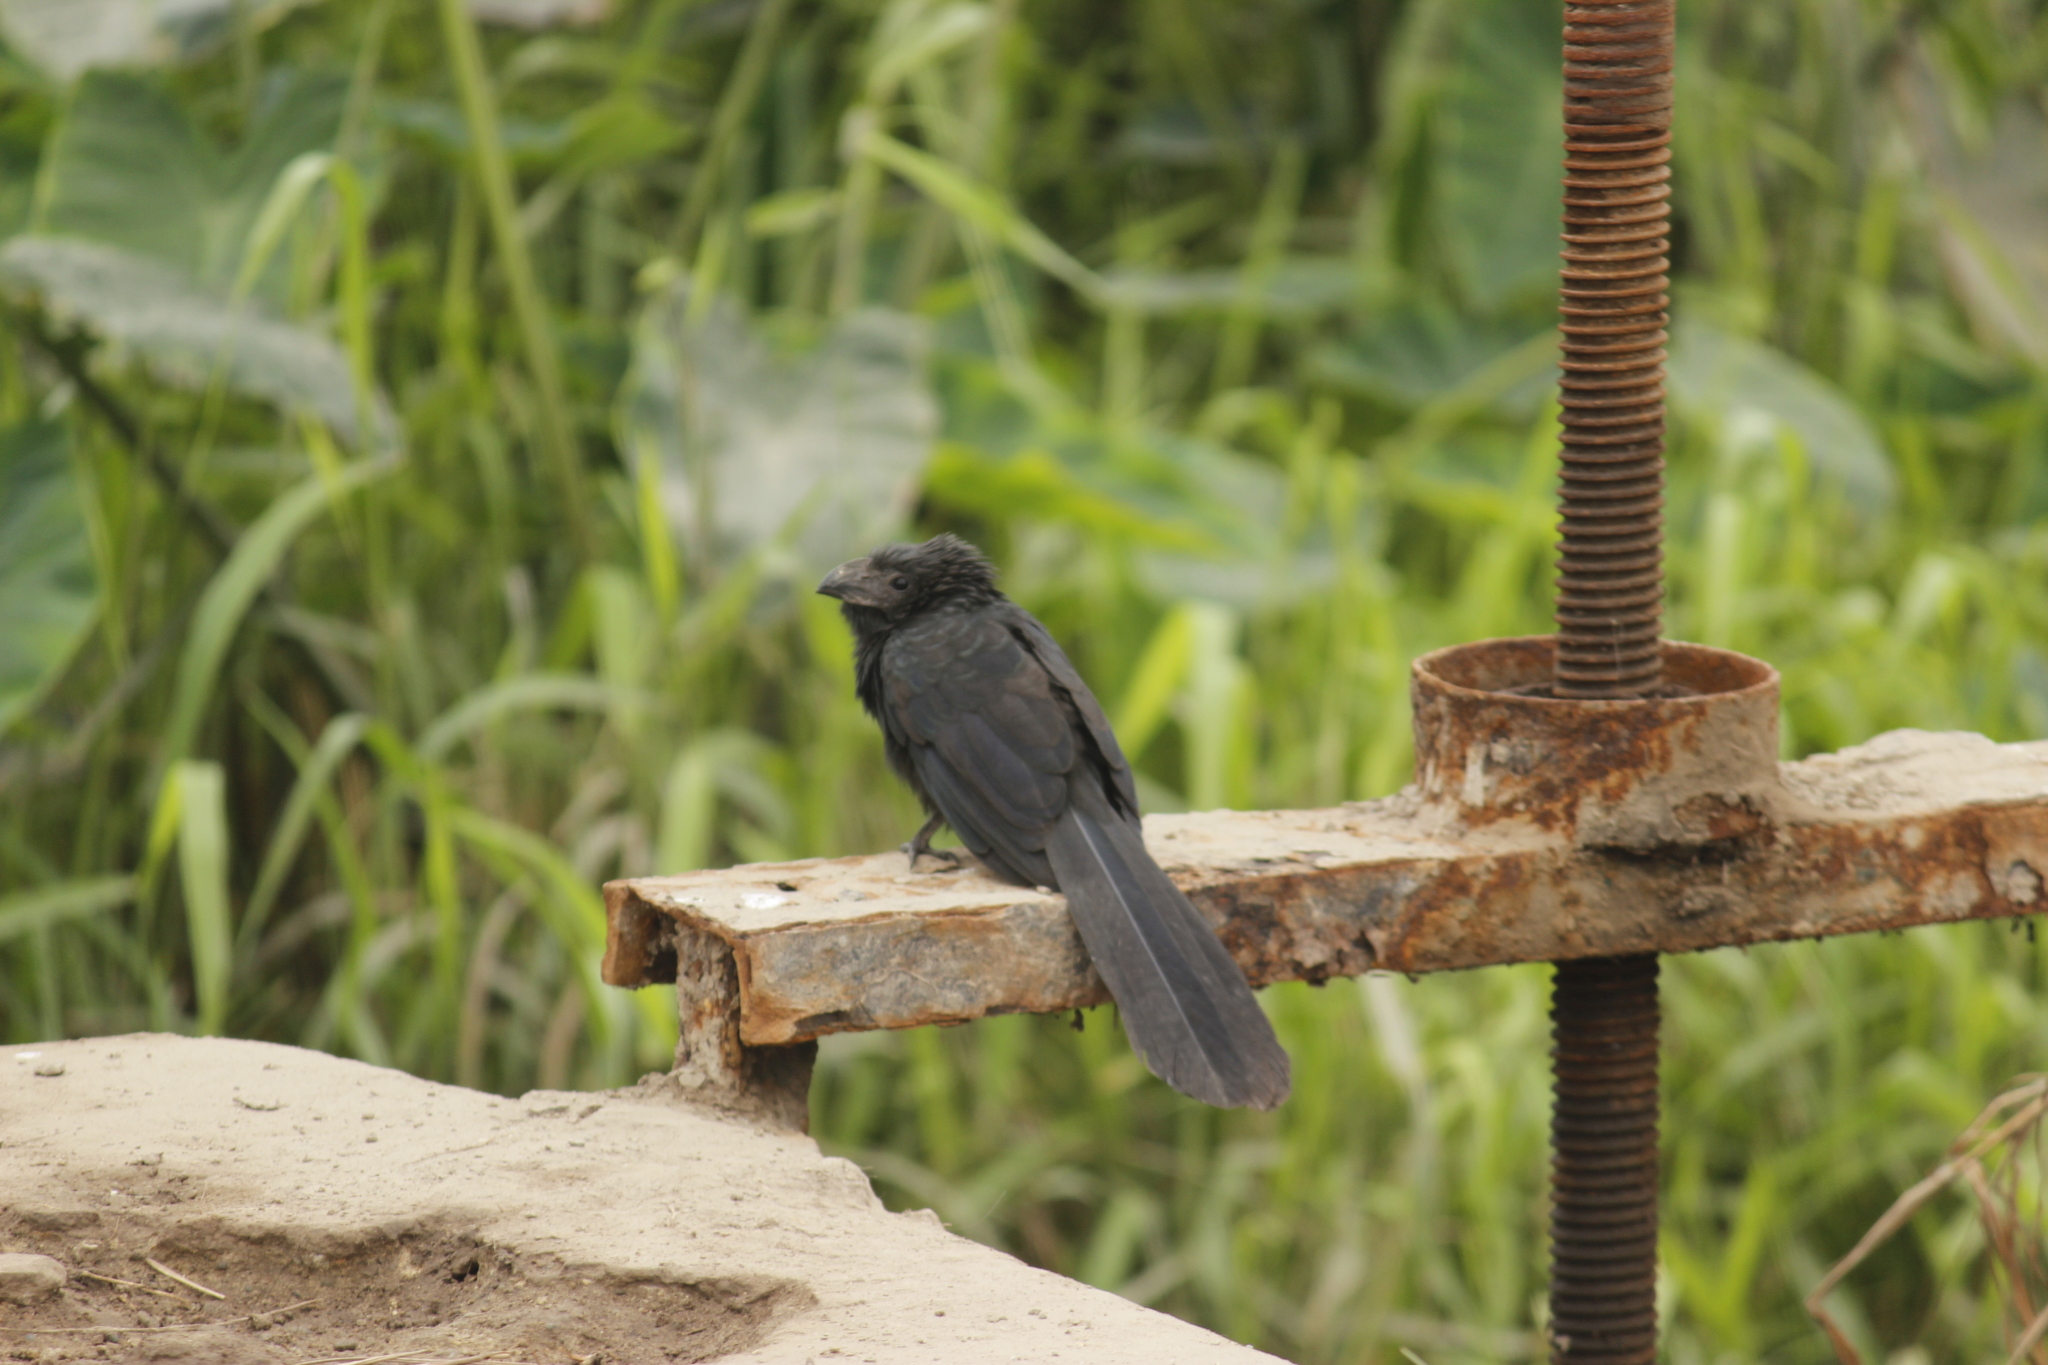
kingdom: Animalia
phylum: Chordata
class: Aves
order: Cuculiformes
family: Cuculidae
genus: Crotophaga
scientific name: Crotophaga sulcirostris
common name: Groove-billed ani
